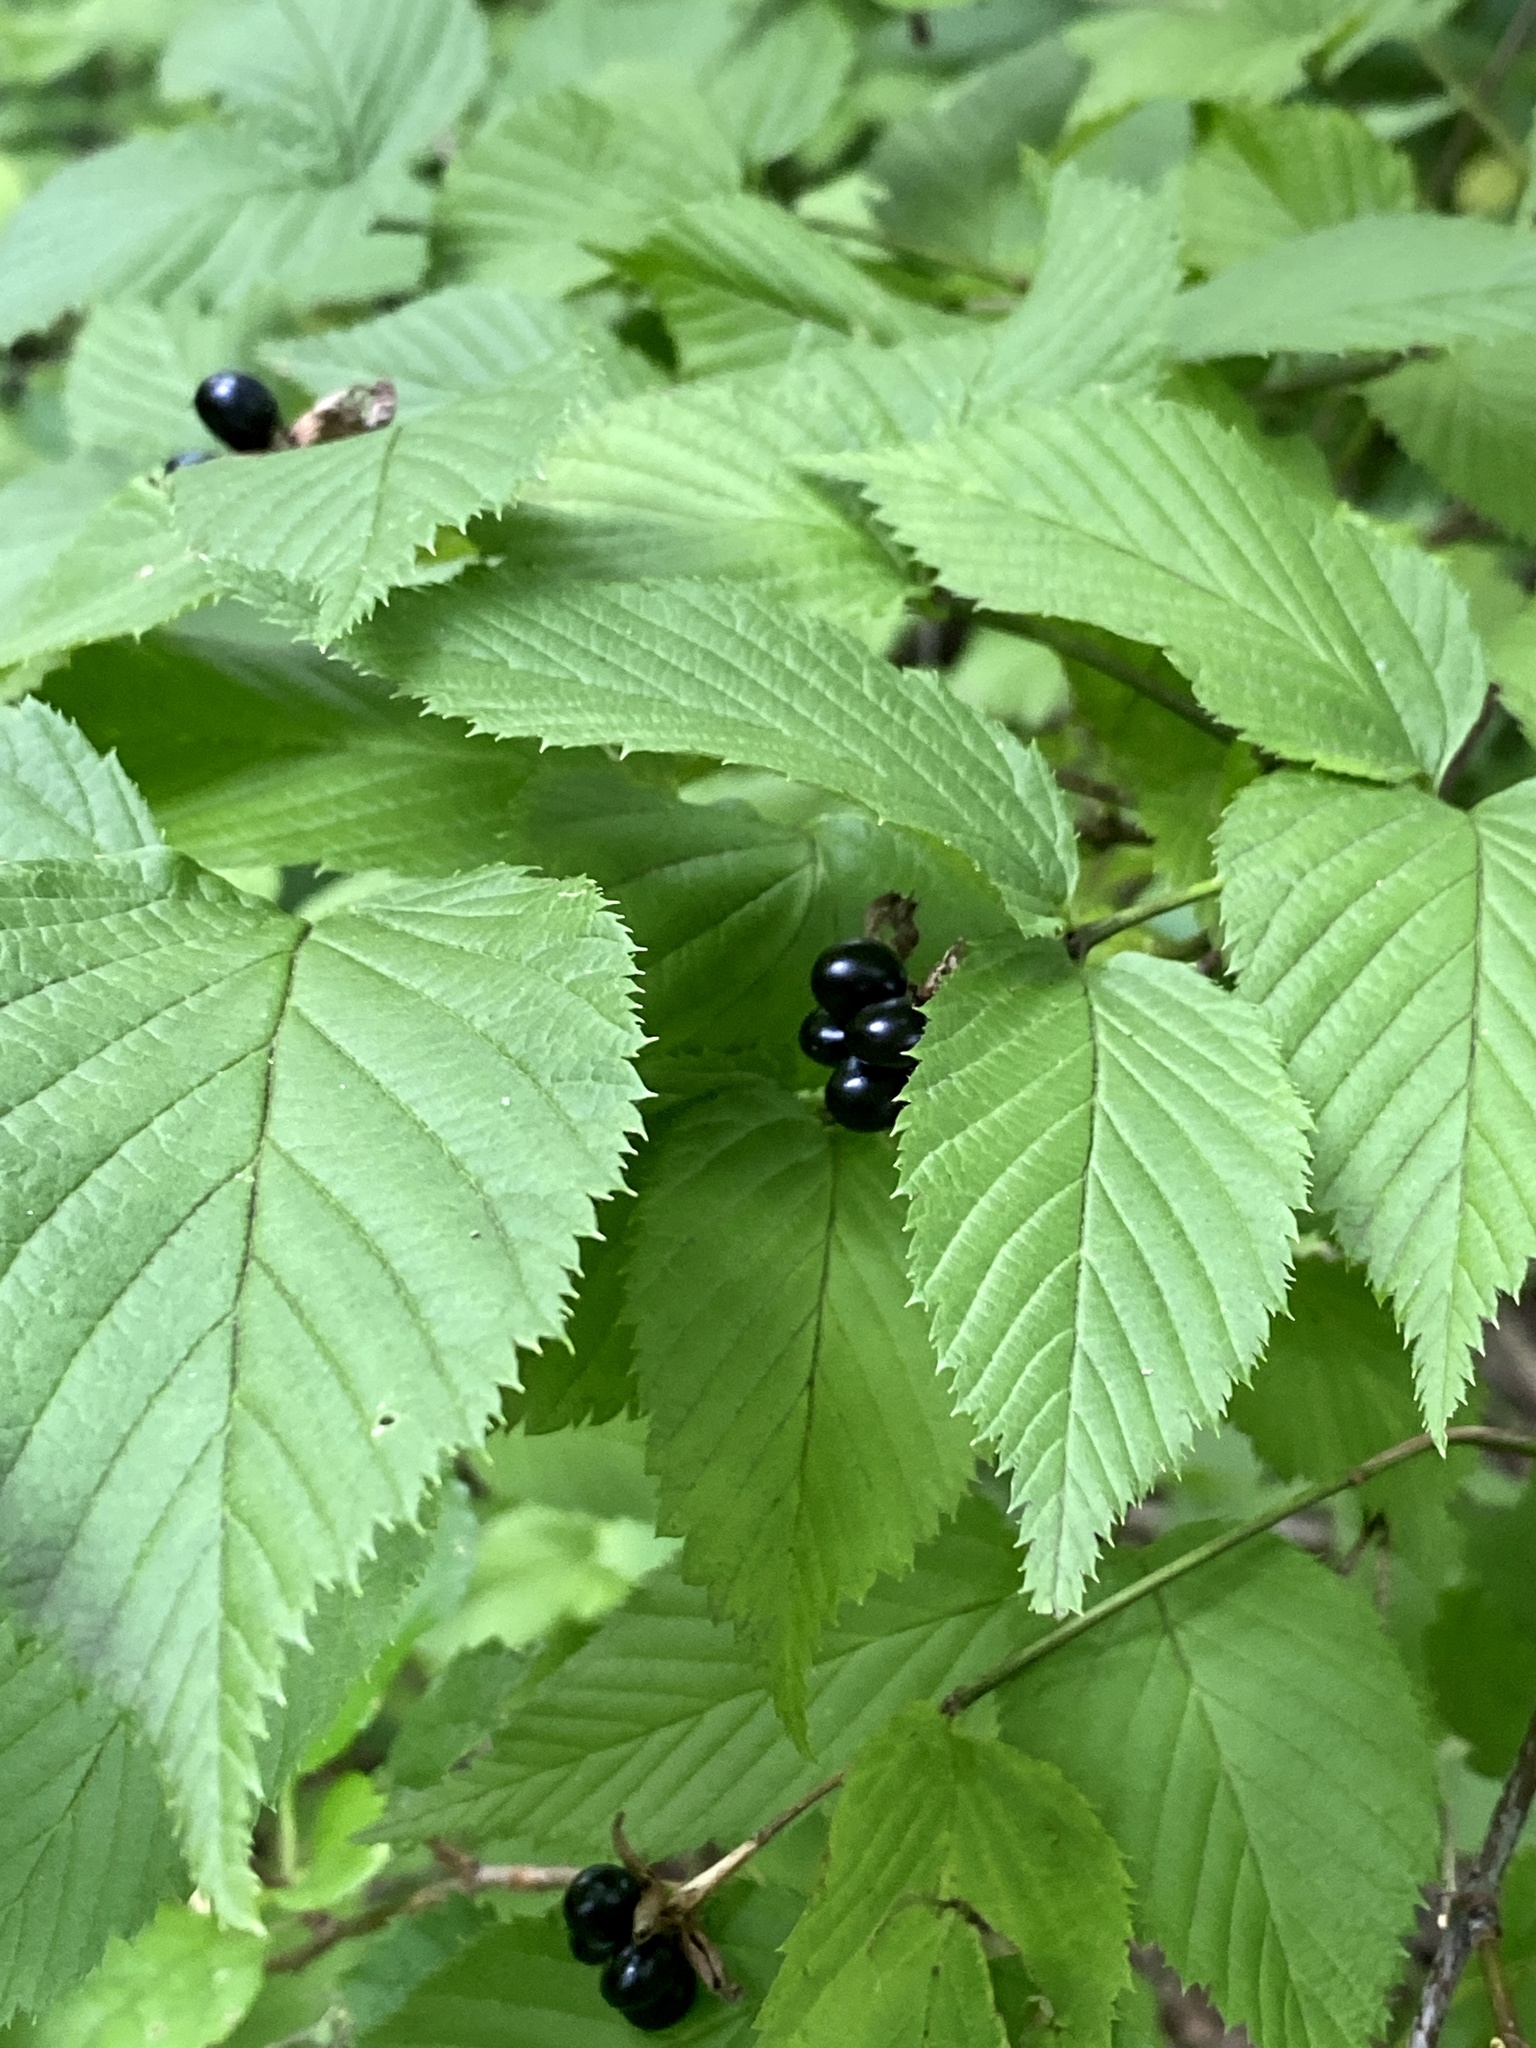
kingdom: Plantae
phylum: Tracheophyta
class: Magnoliopsida
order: Rosales
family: Rosaceae
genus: Rhodotypos
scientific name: Rhodotypos scandens
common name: Jetbead
